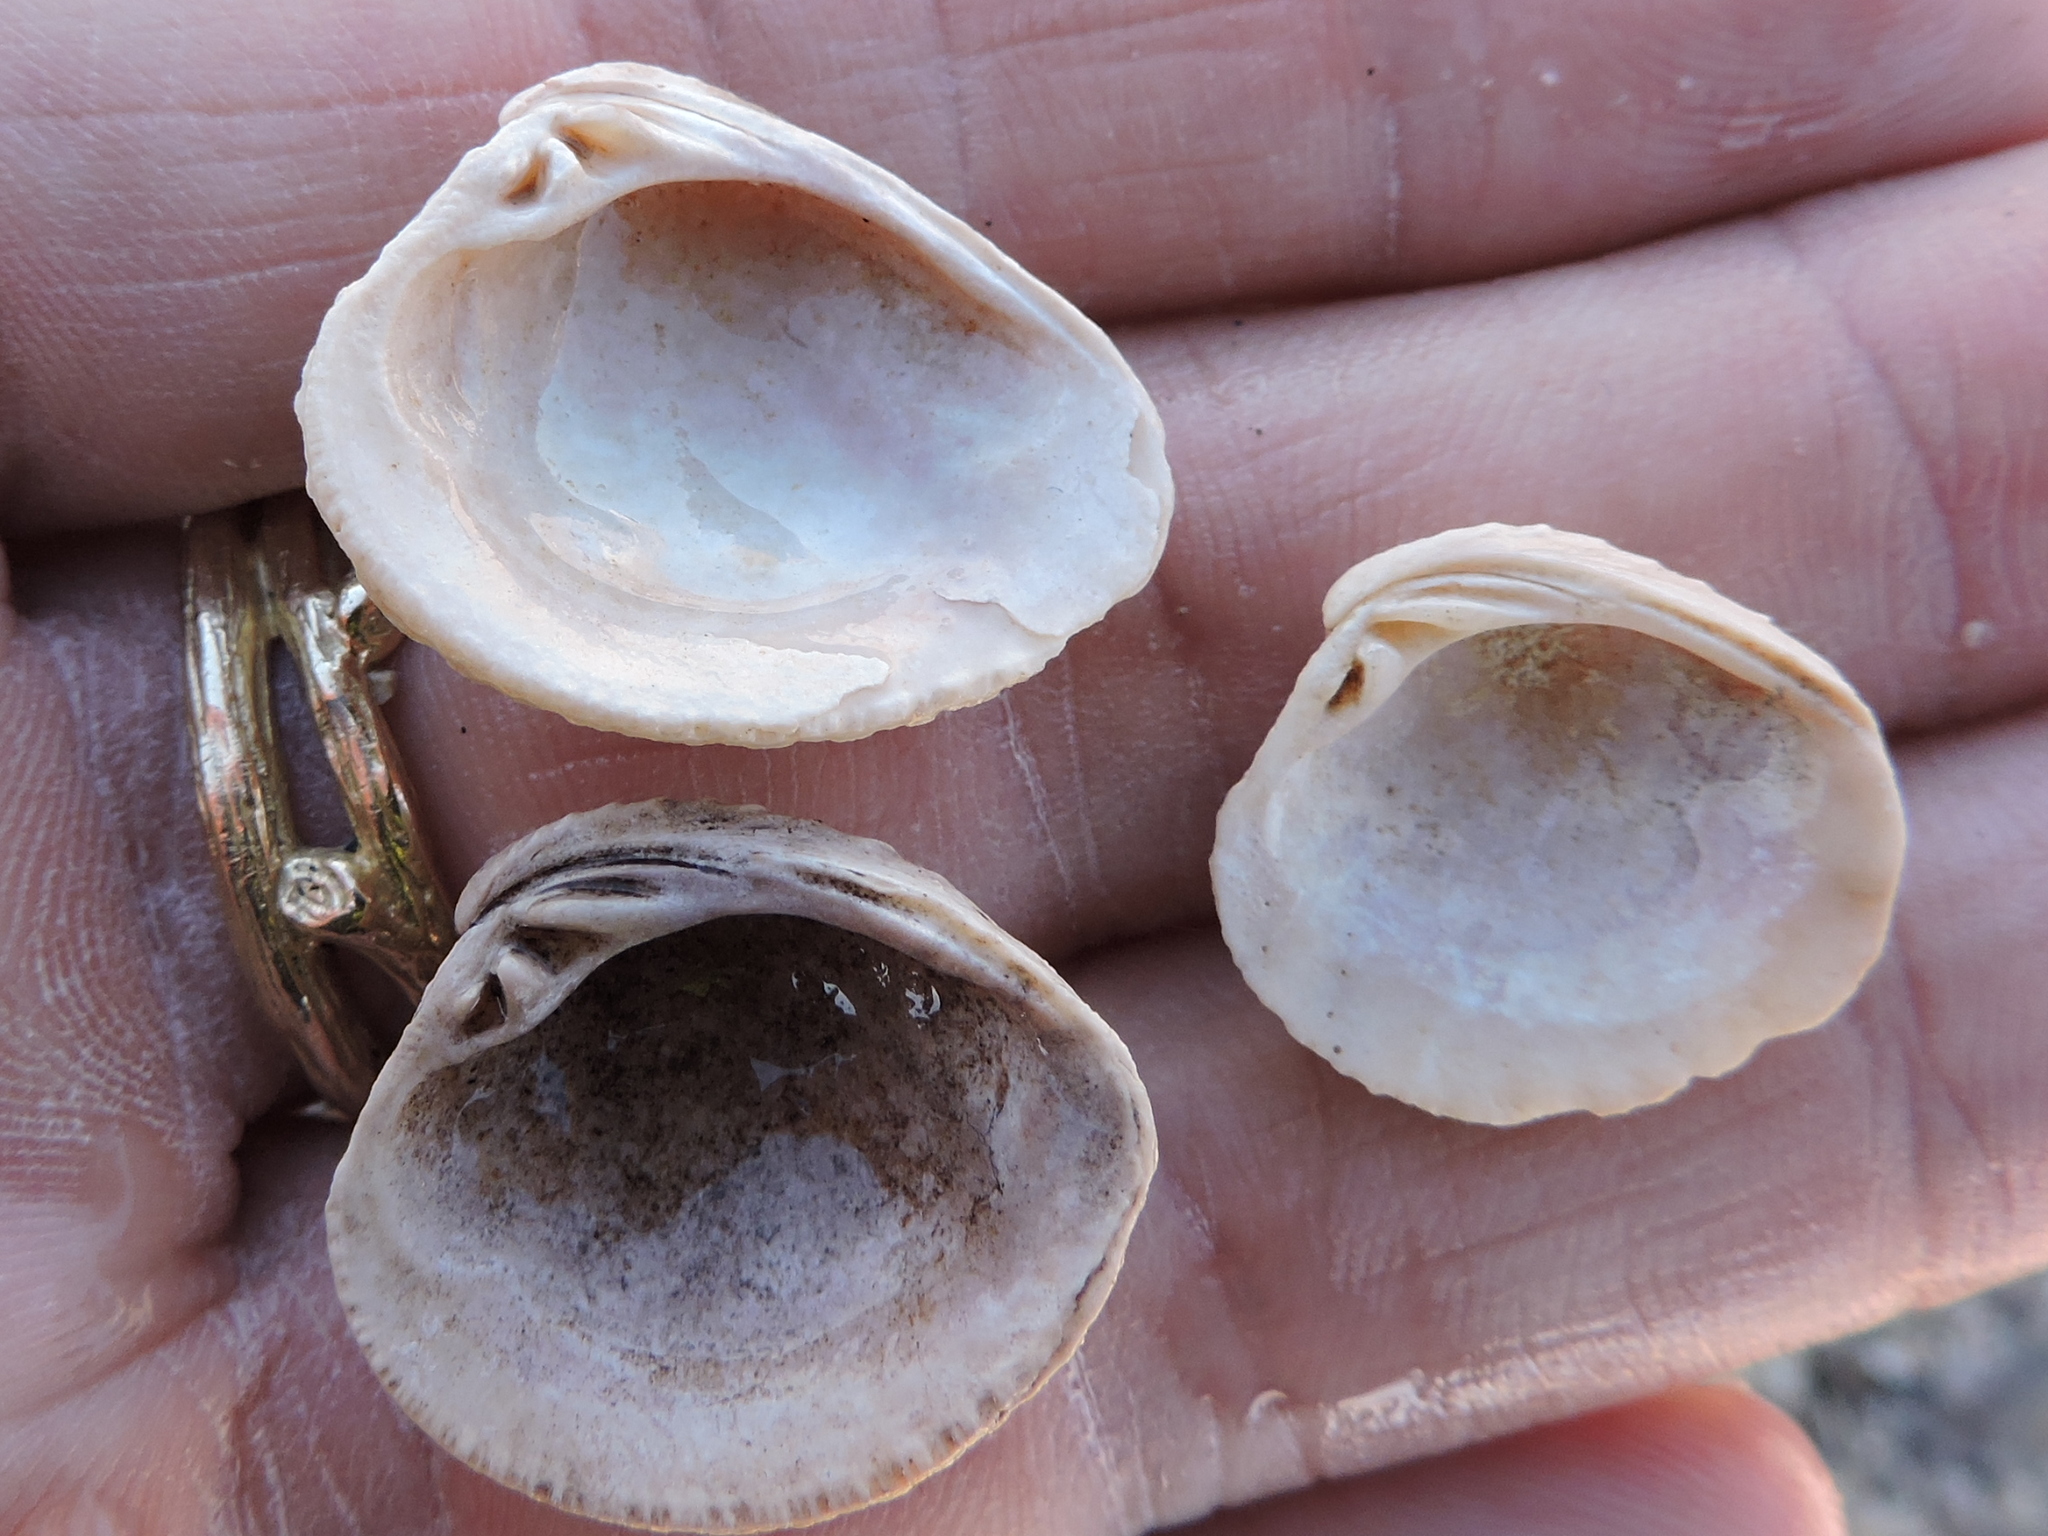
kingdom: Animalia
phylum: Mollusca
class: Bivalvia
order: Venerida
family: Veneridae
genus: Chione
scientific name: Chione elevata
